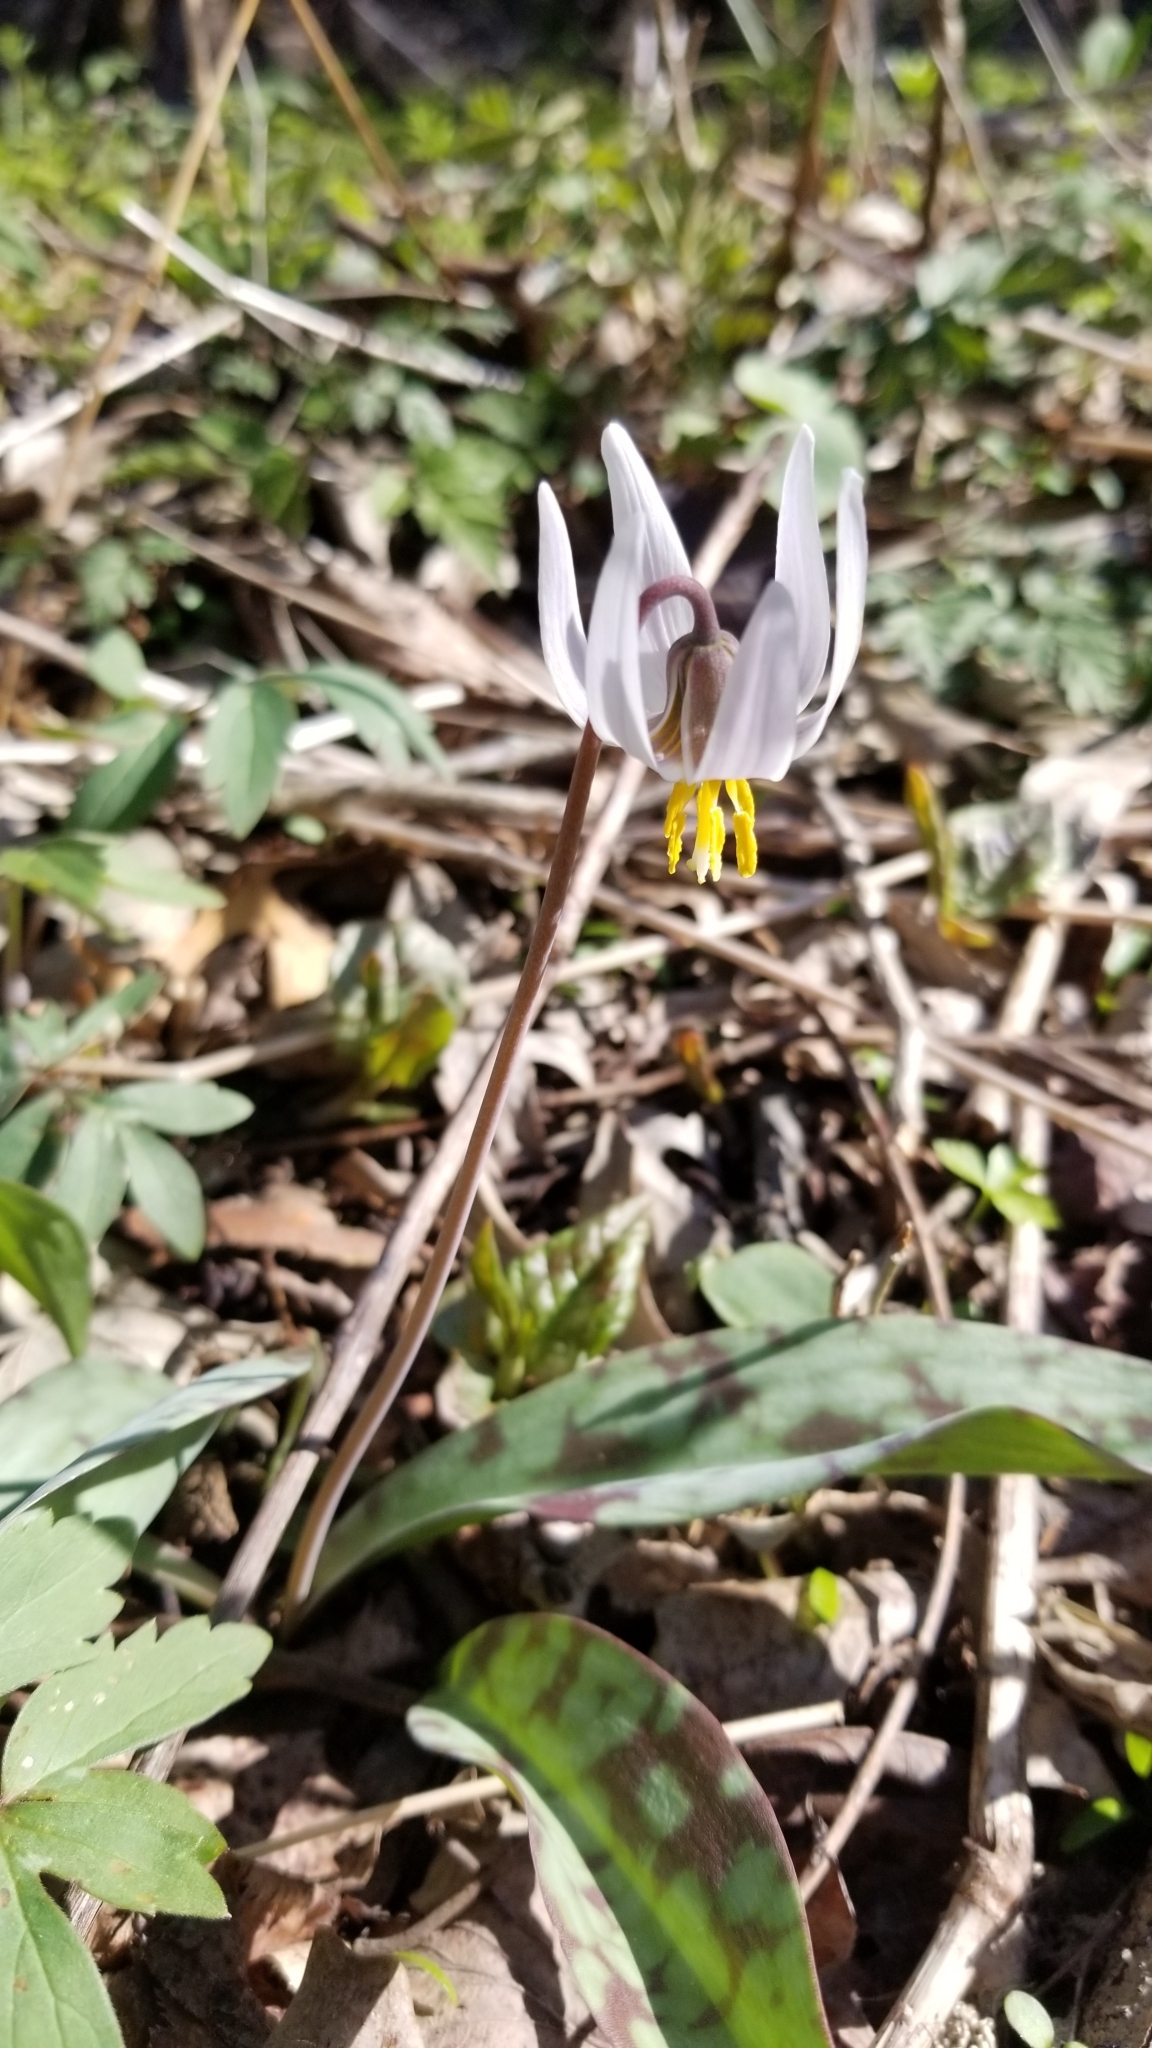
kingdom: Plantae
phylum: Tracheophyta
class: Liliopsida
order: Liliales
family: Liliaceae
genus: Erythronium
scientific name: Erythronium albidum
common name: White trout-lily
